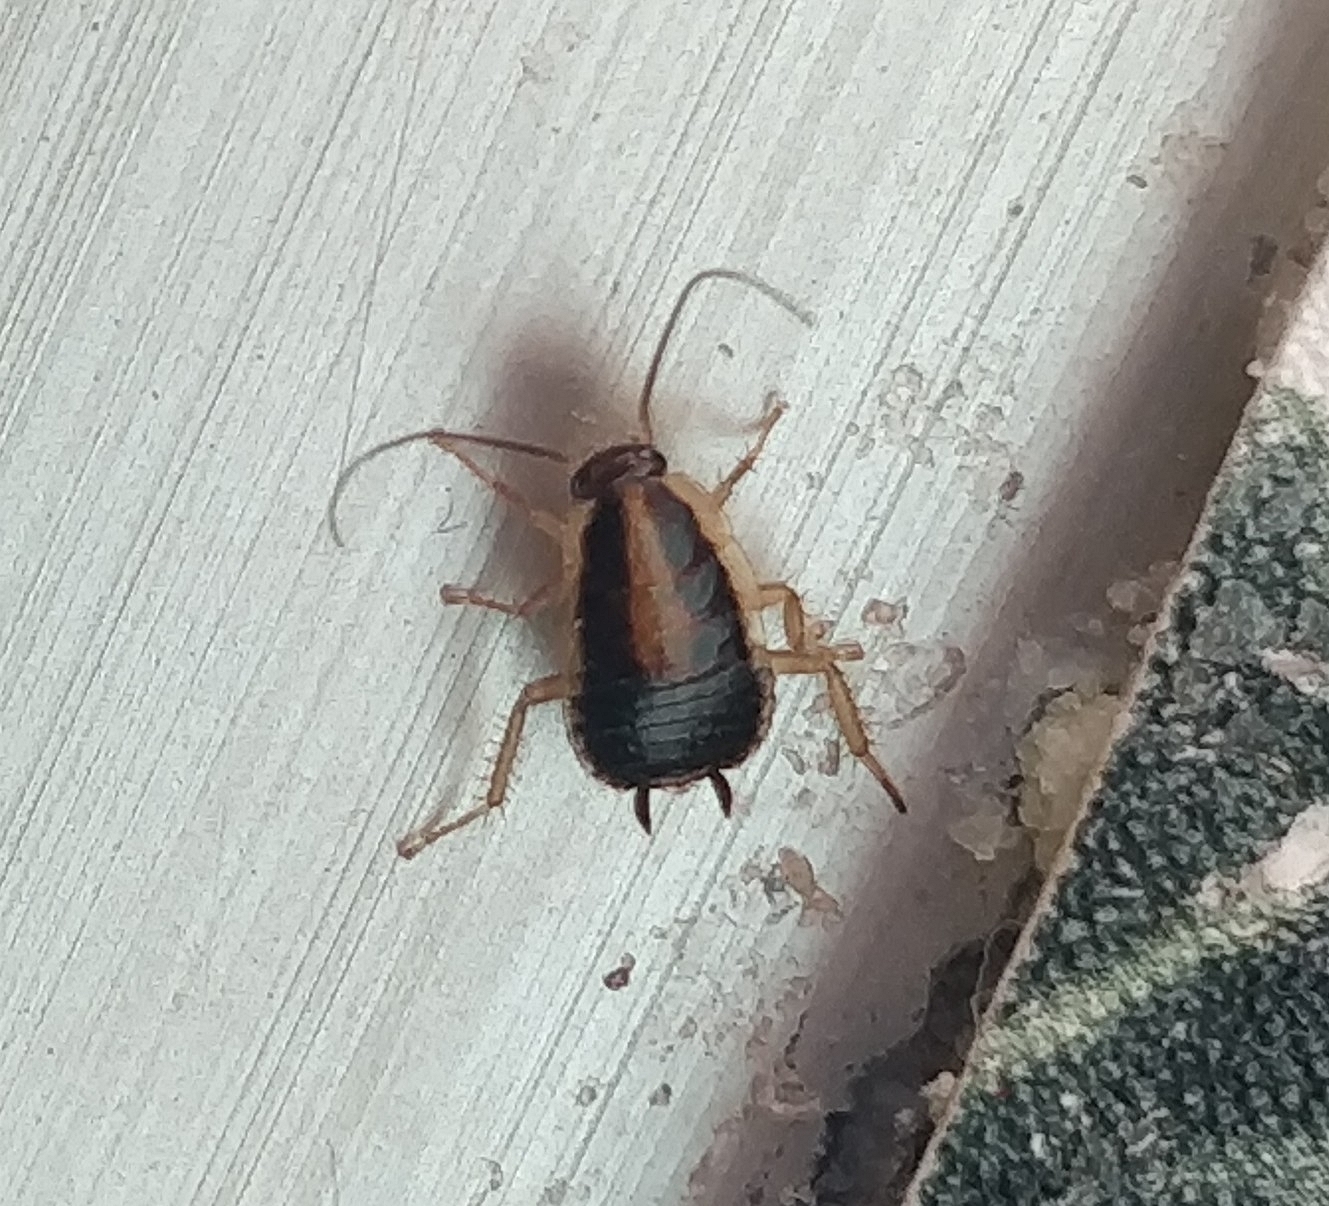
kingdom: Animalia
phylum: Arthropoda
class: Insecta
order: Blattodea
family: Ectobiidae
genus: Blattella
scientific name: Blattella germanica
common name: German cockroach
